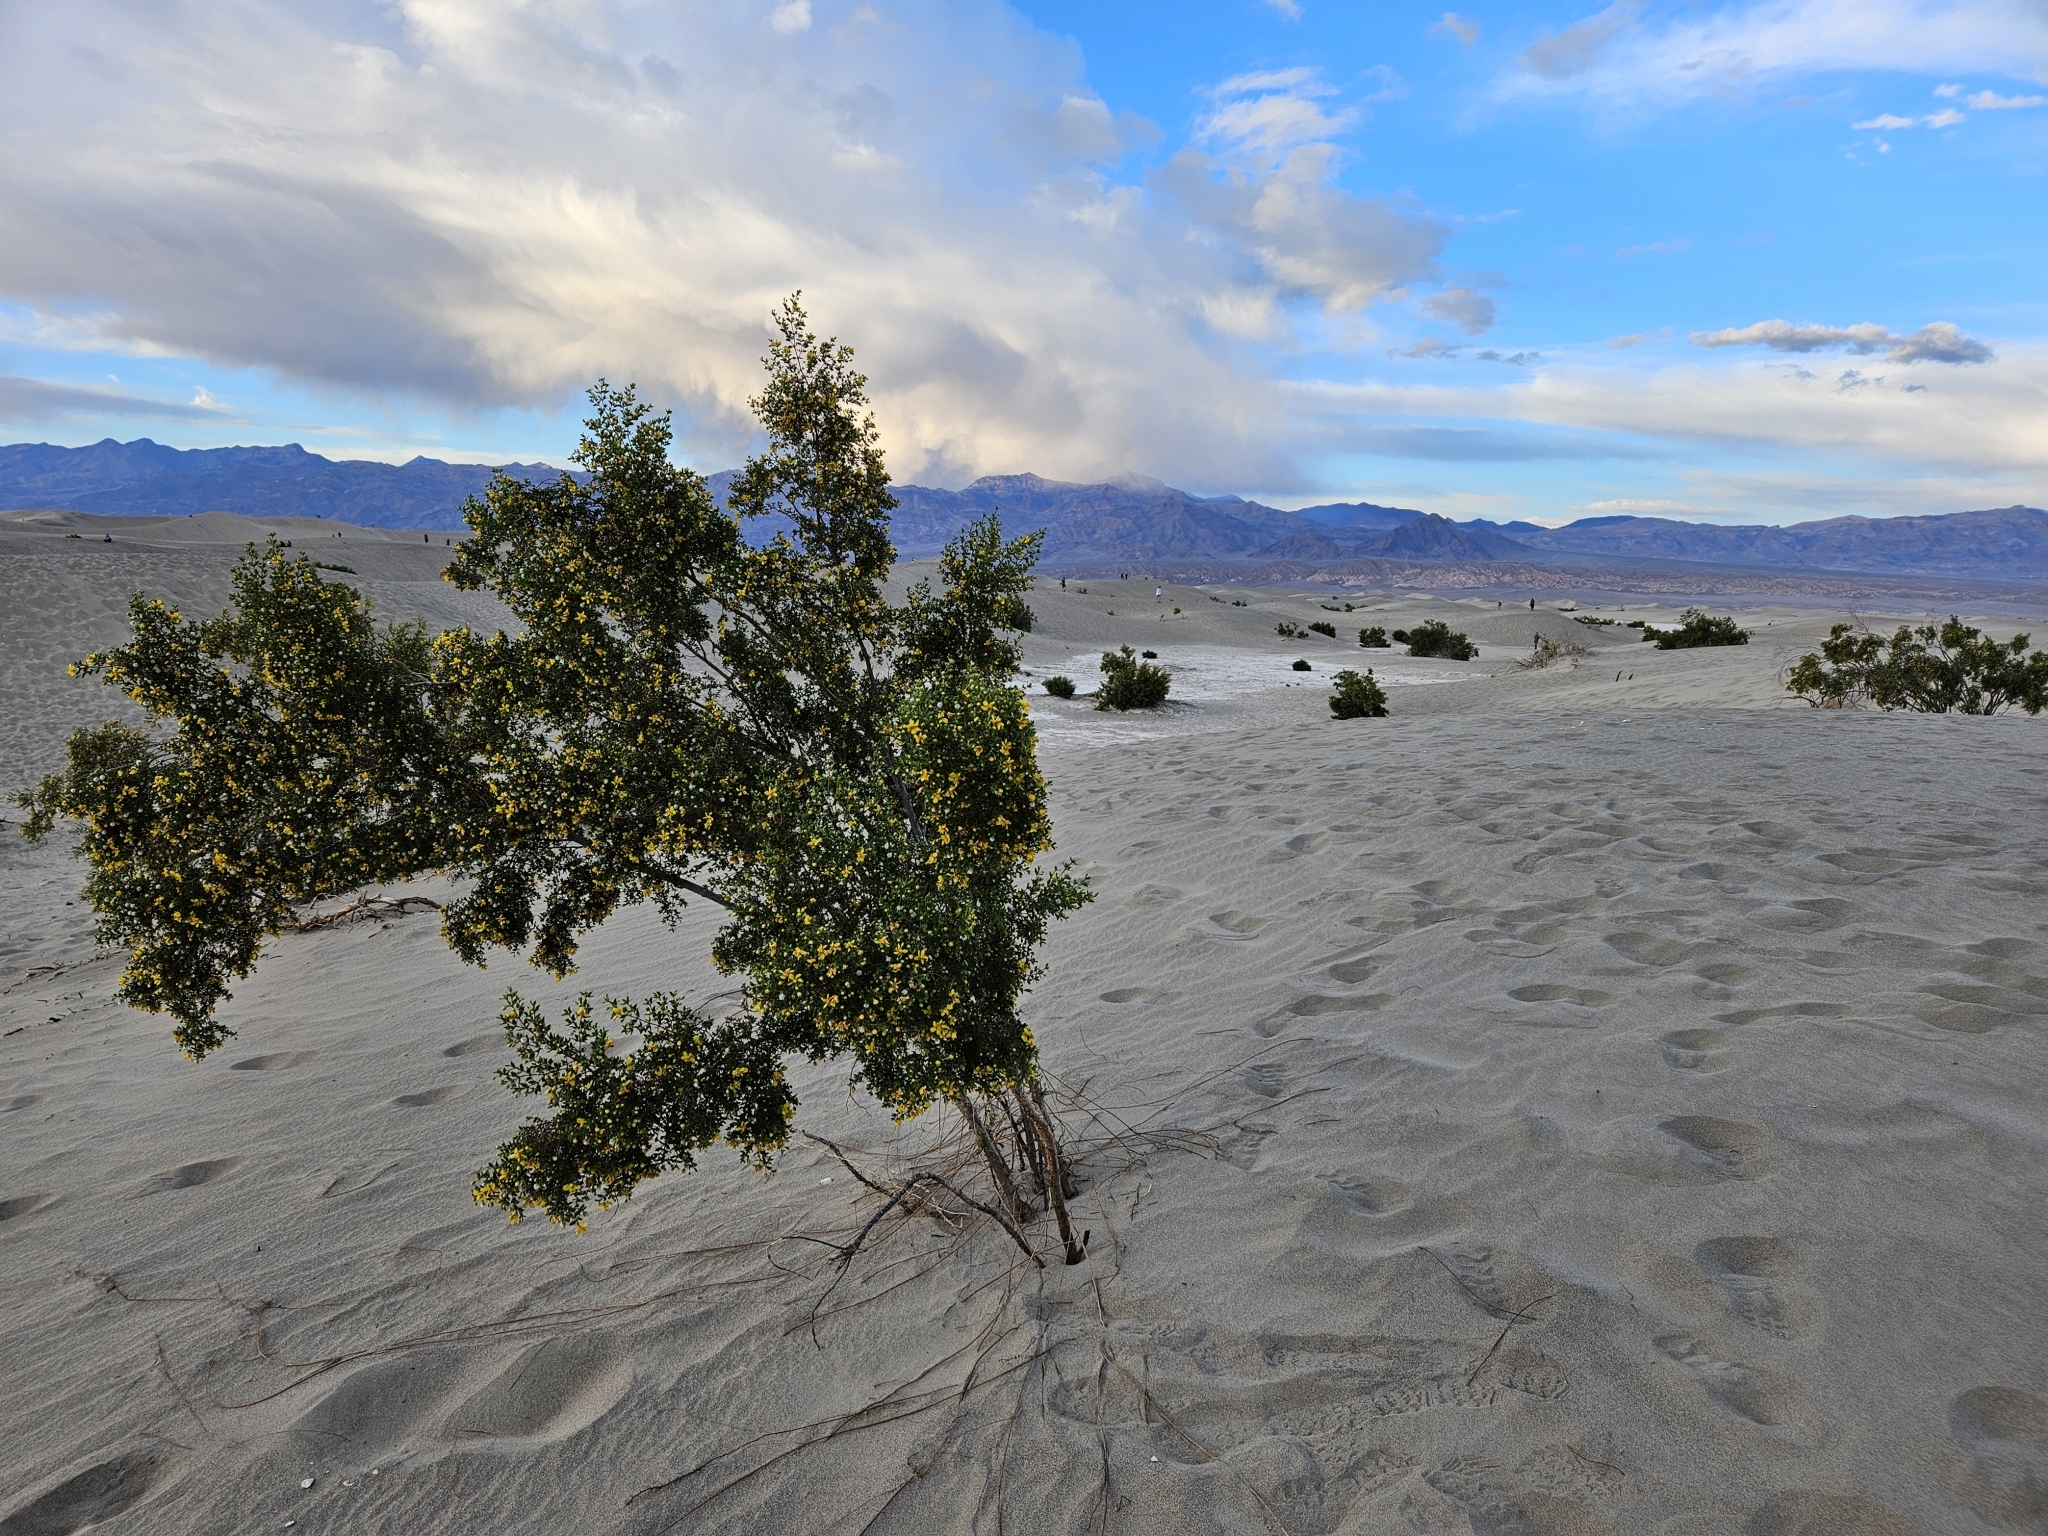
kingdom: Plantae
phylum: Tracheophyta
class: Magnoliopsida
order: Zygophyllales
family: Zygophyllaceae
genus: Larrea
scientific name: Larrea tridentata
